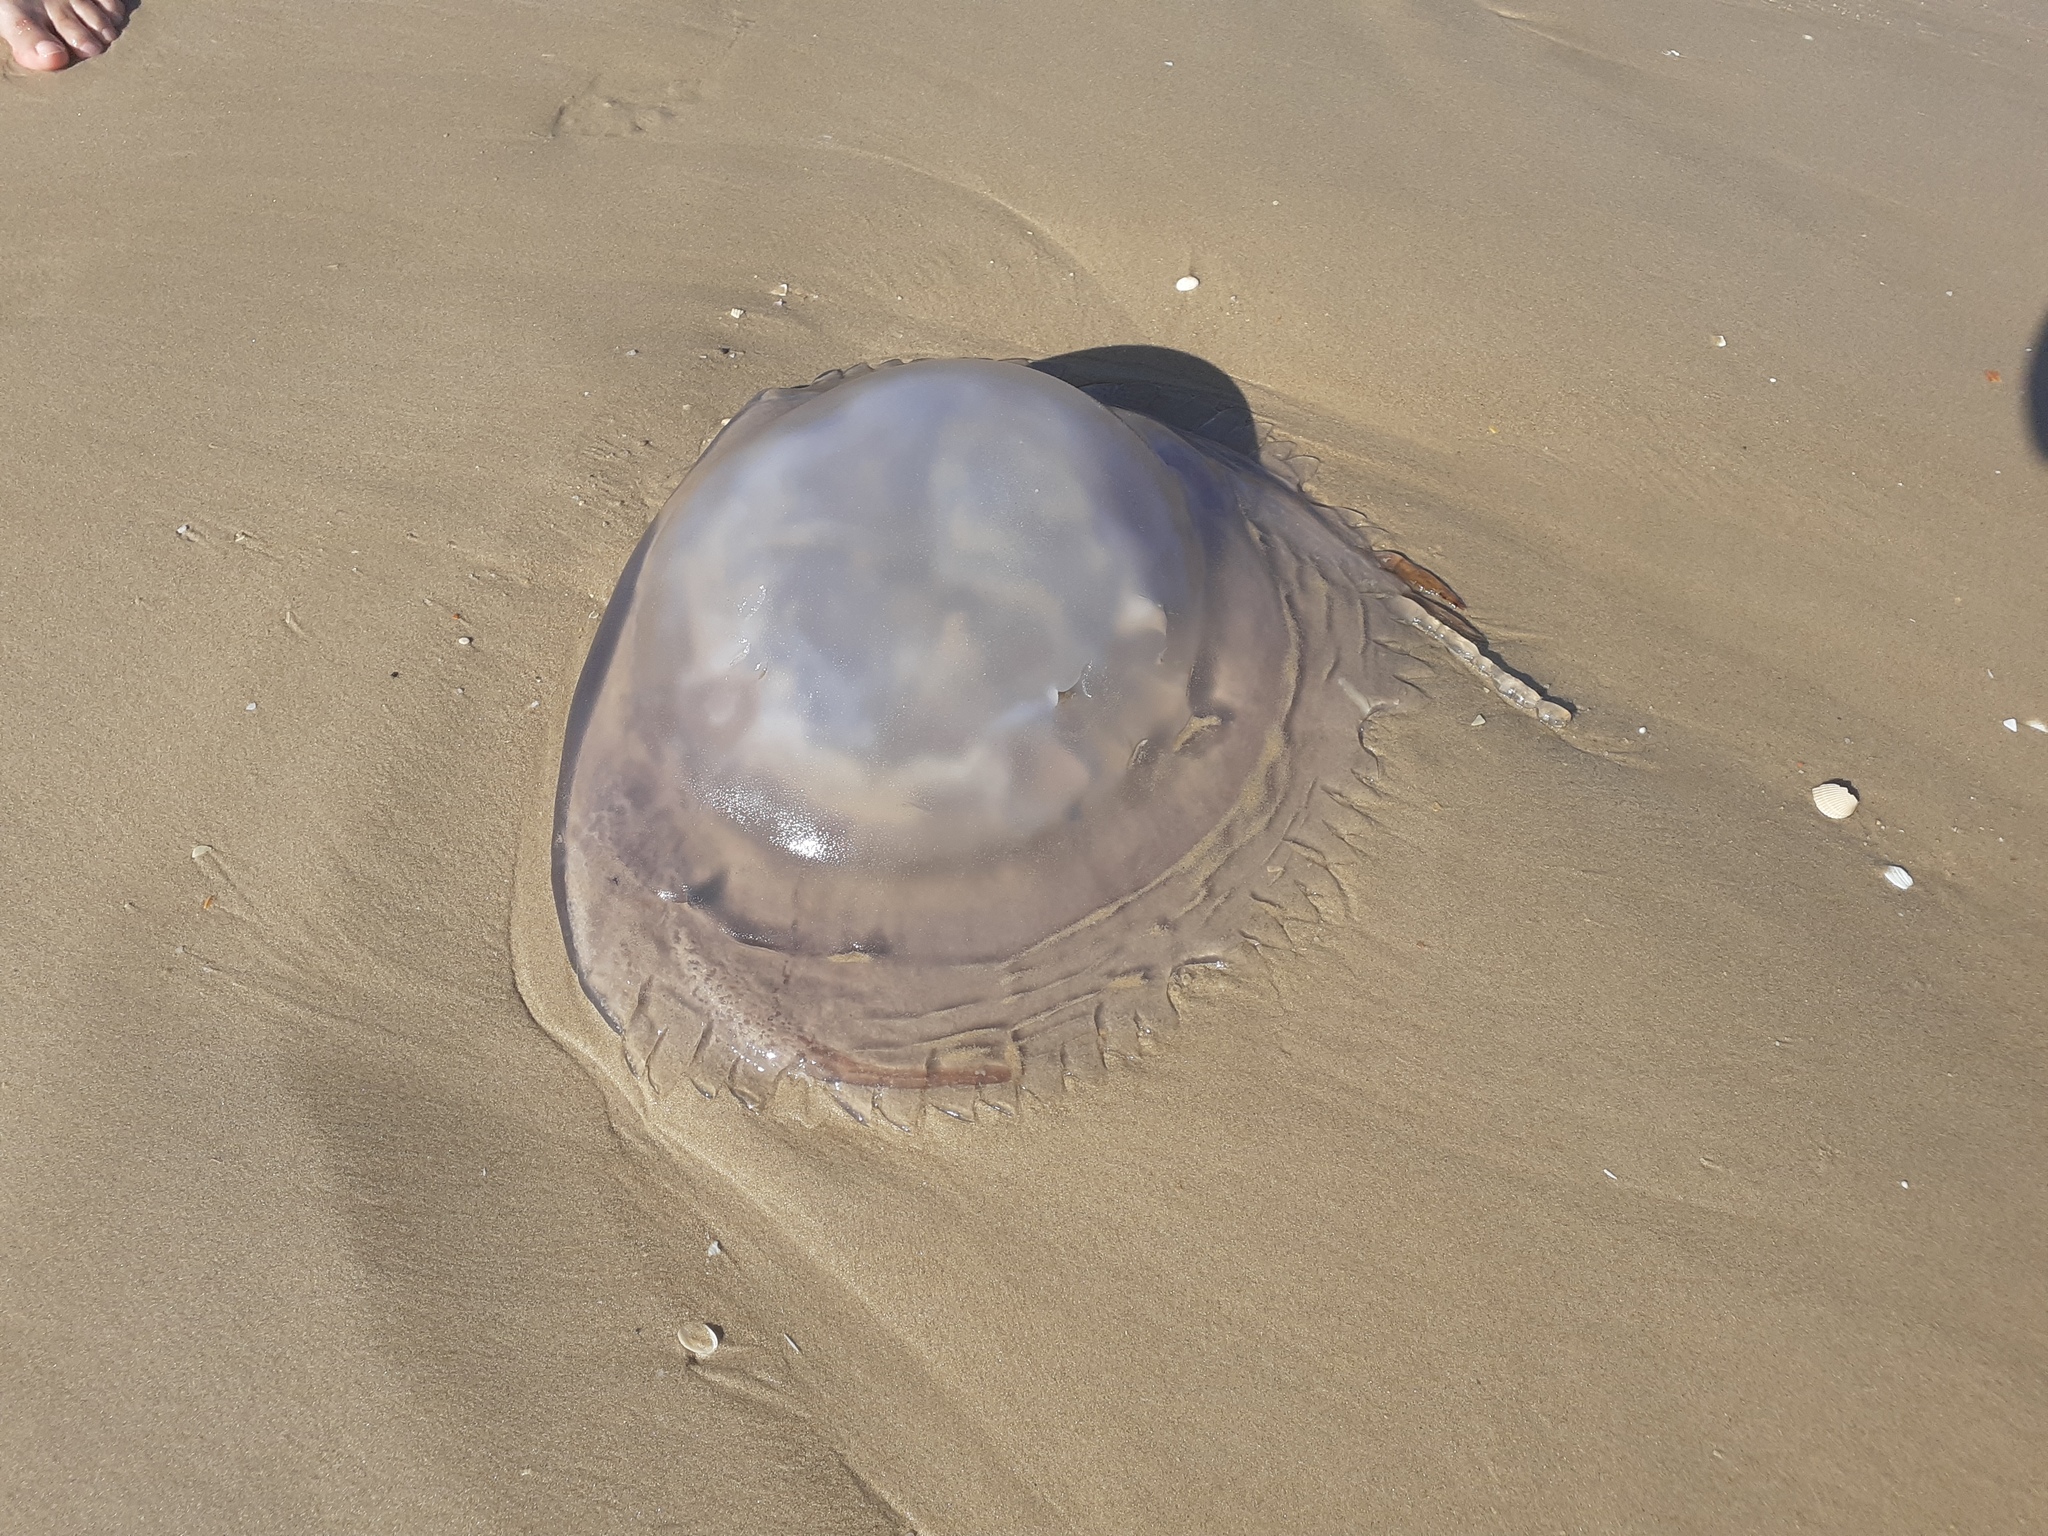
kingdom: Animalia
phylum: Cnidaria
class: Scyphozoa
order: Rhizostomeae
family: Rhizostomatidae
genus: Rhizostoma
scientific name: Rhizostoma luteum
